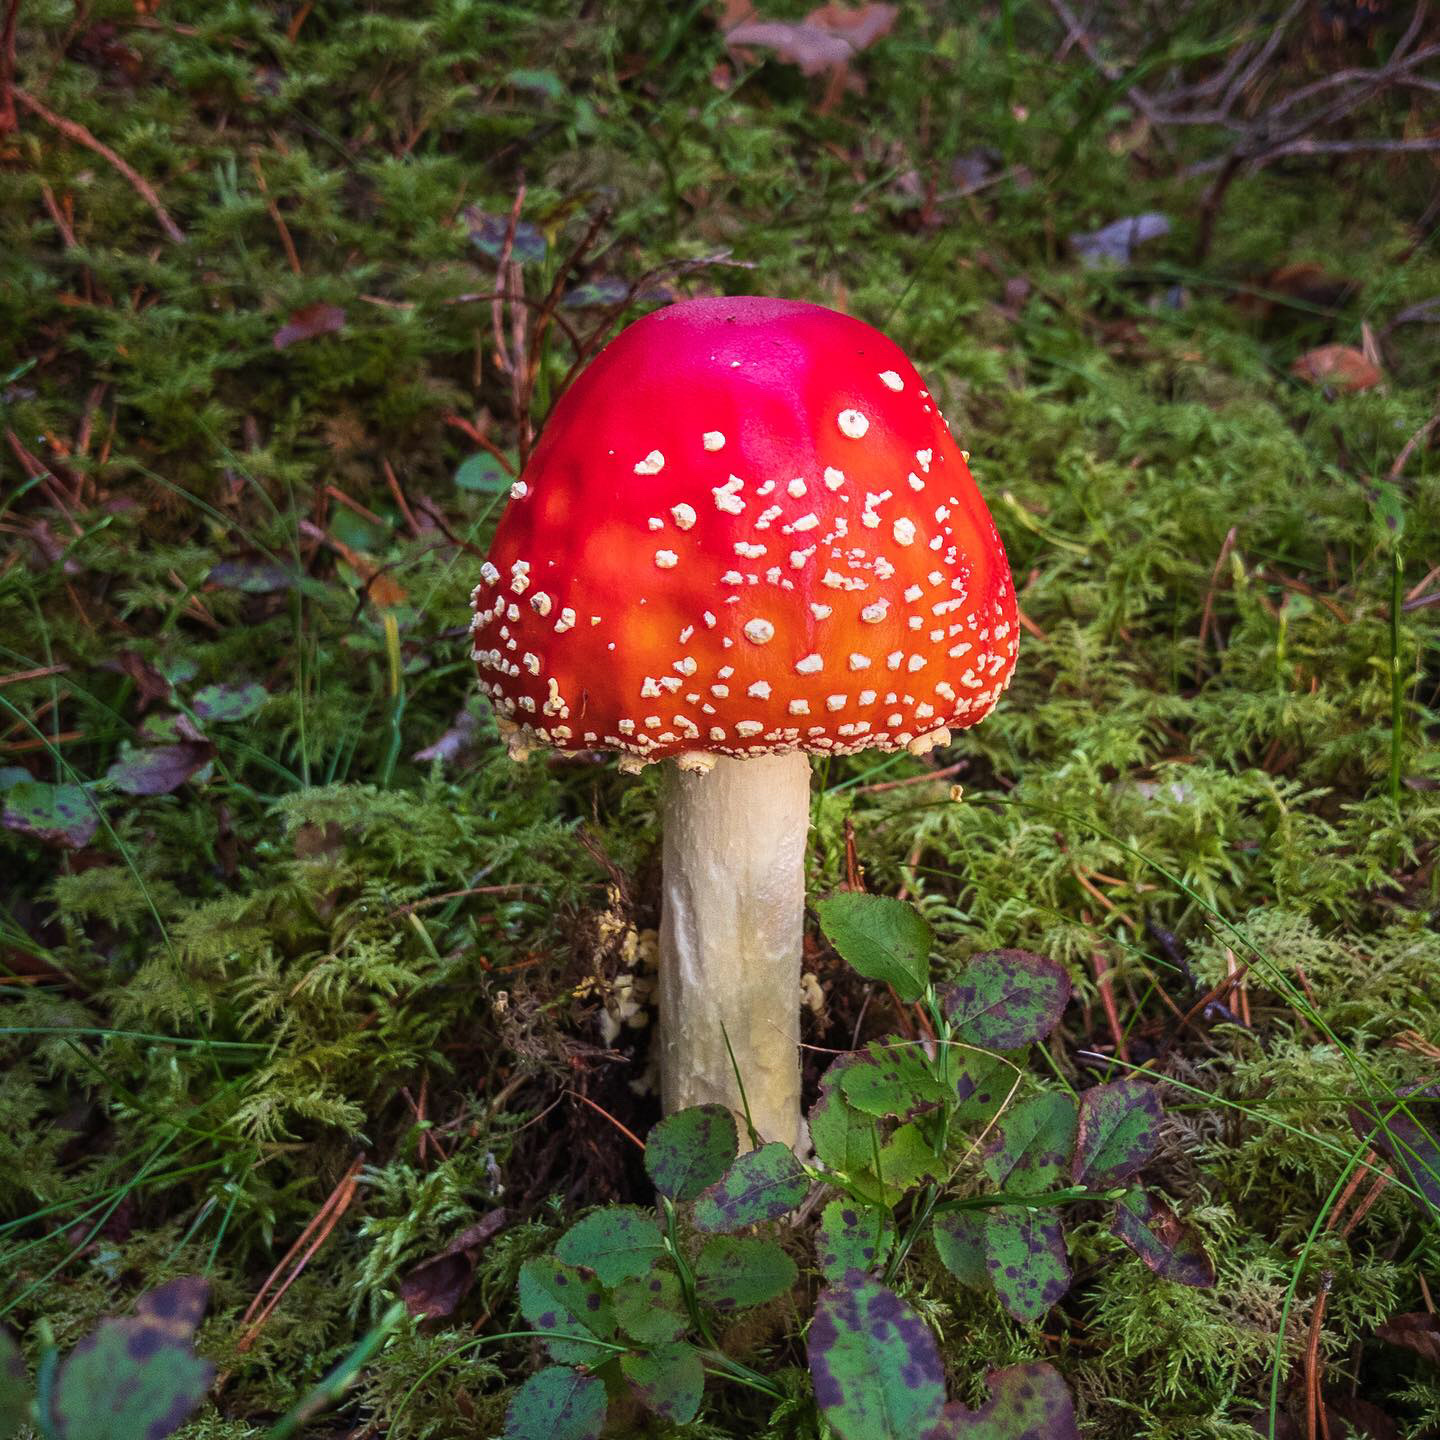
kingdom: Fungi
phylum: Basidiomycota
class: Agaricomycetes
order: Agaricales
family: Amanitaceae
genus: Amanita
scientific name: Amanita muscaria
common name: Fly agaric
